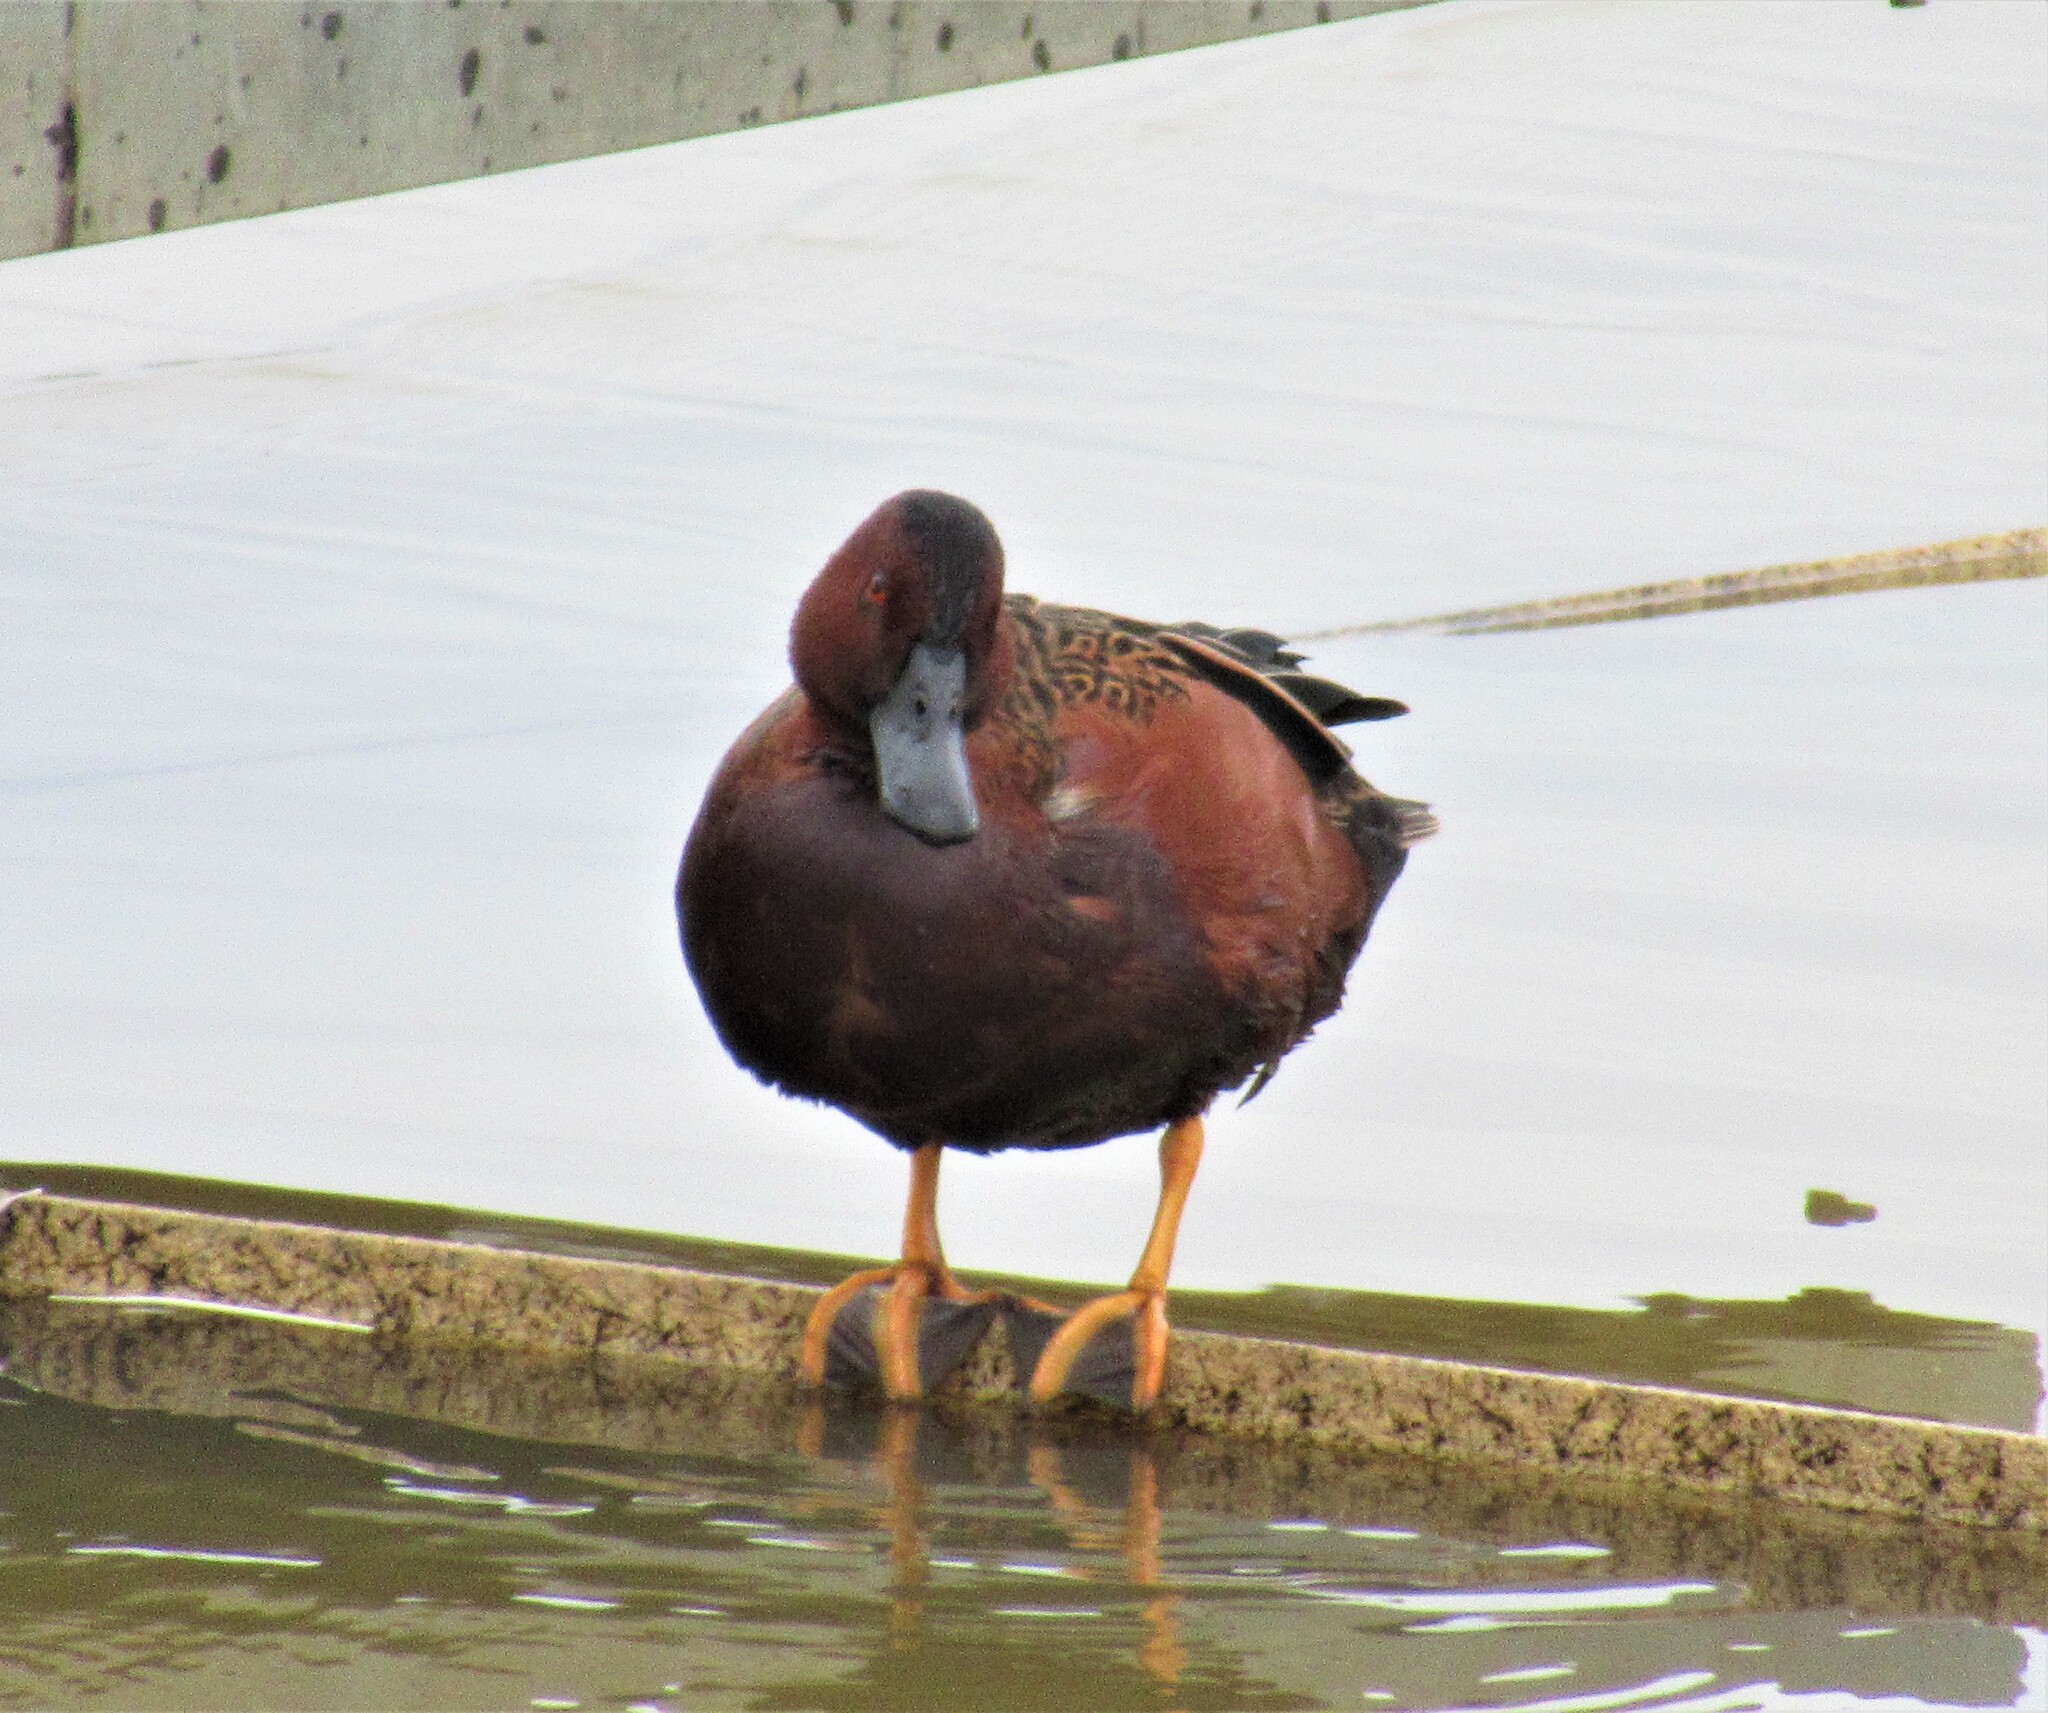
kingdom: Animalia
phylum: Chordata
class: Aves
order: Anseriformes
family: Anatidae
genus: Spatula
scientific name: Spatula cyanoptera
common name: Cinnamon teal
